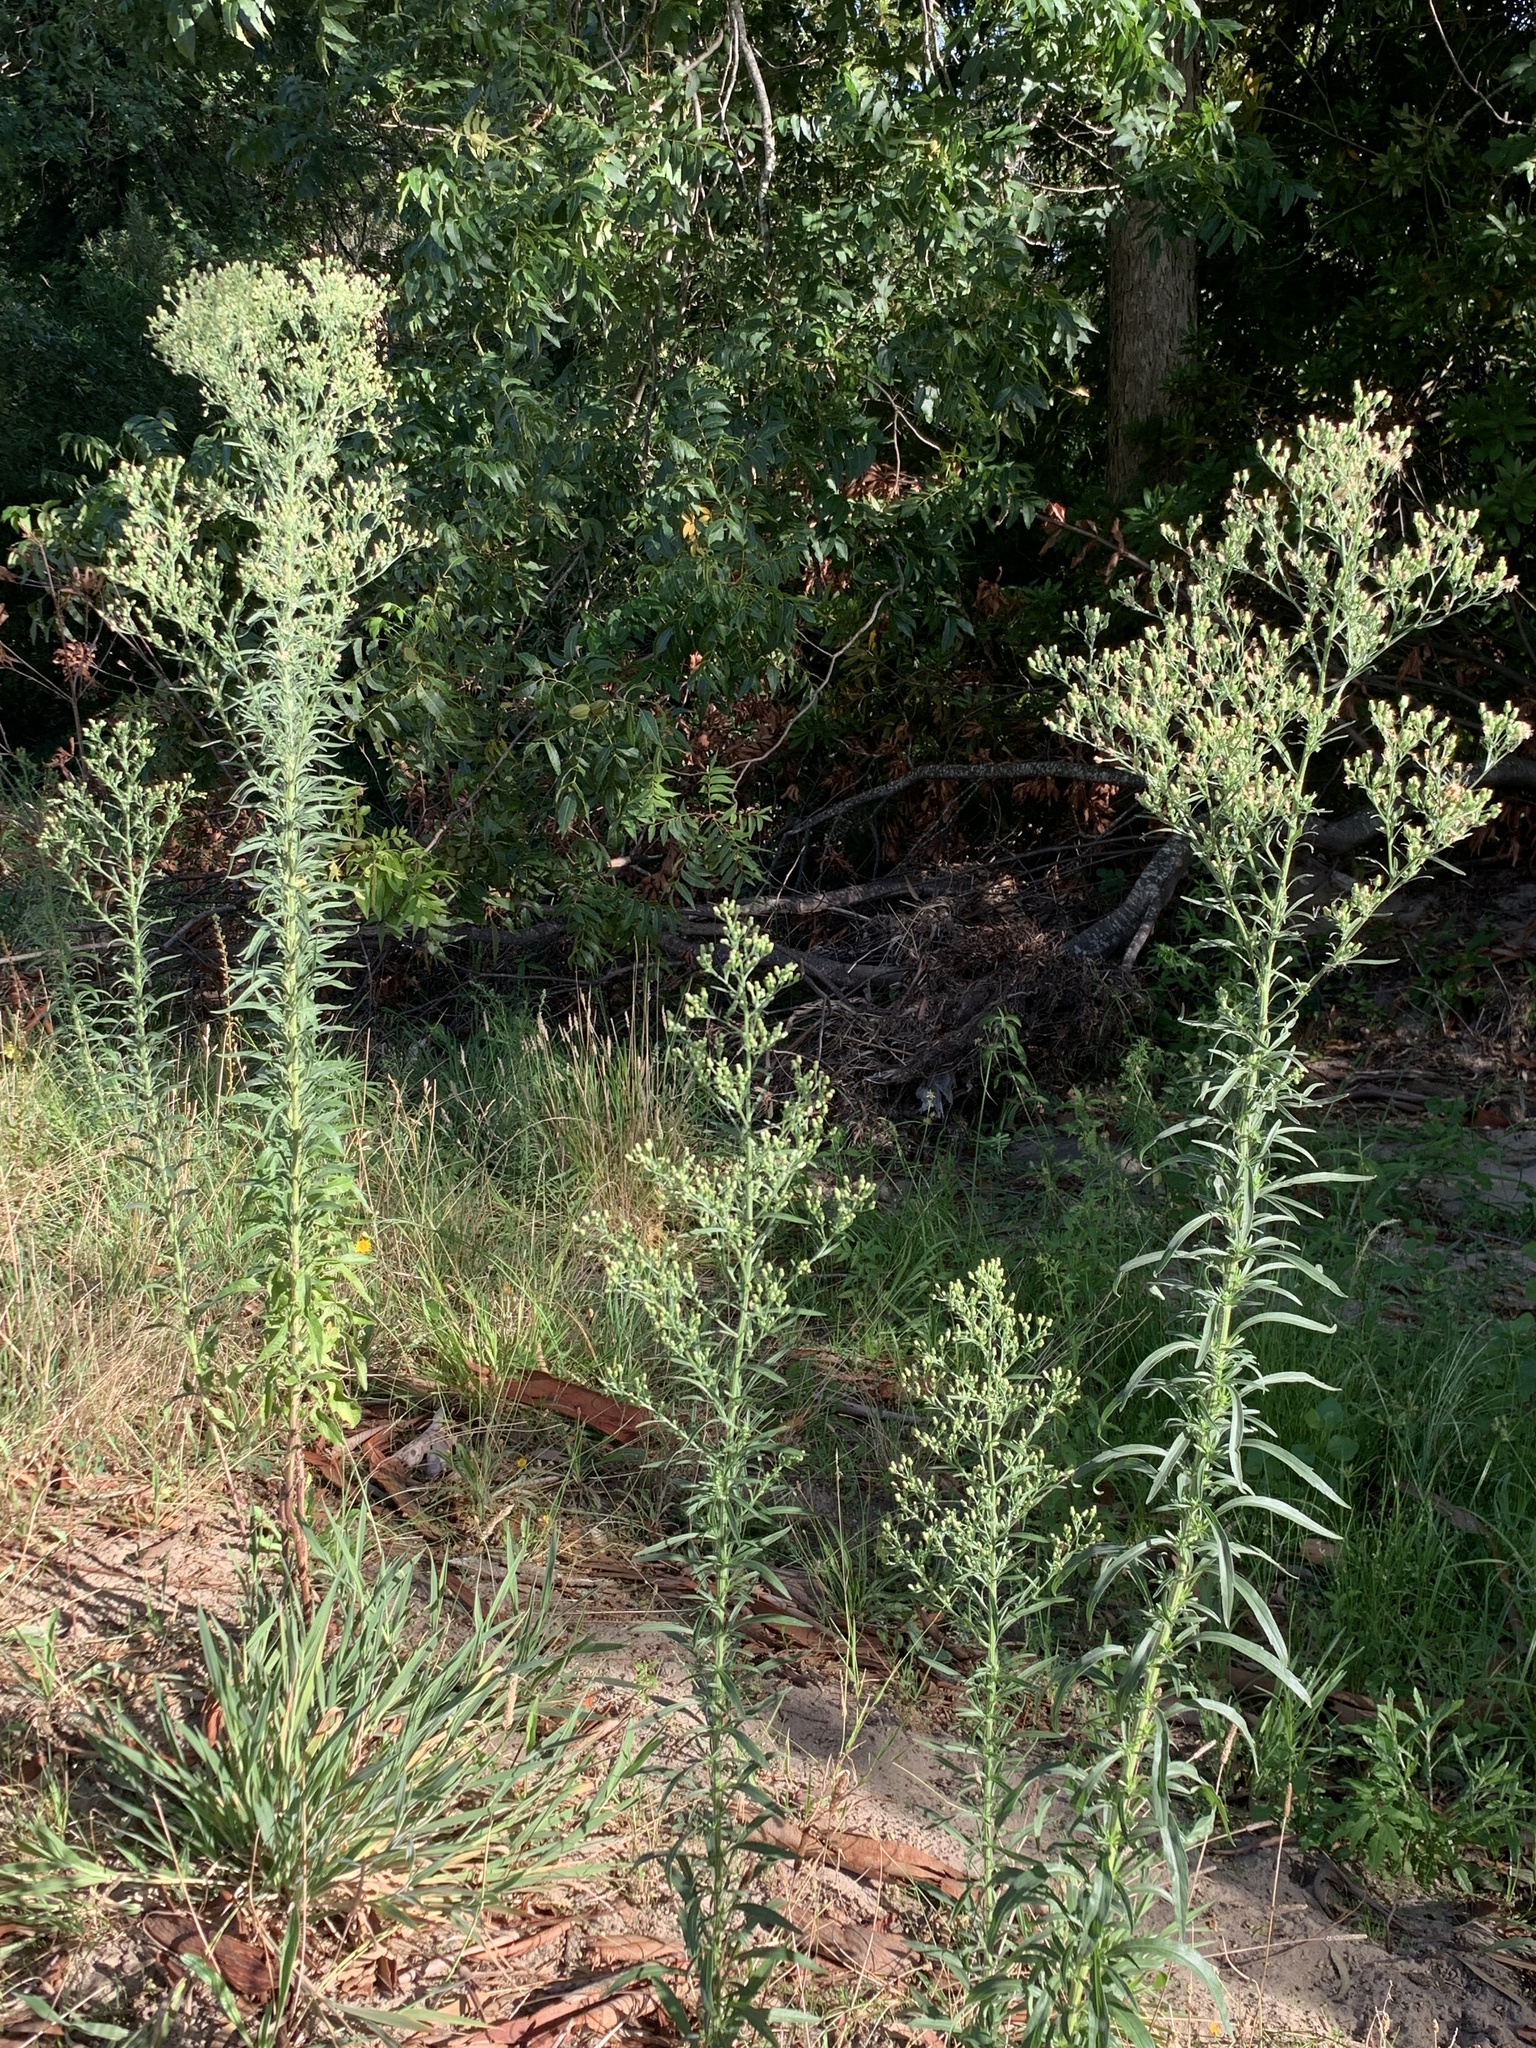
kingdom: Plantae
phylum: Tracheophyta
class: Magnoliopsida
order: Asterales
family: Asteraceae
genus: Erigeron
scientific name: Erigeron sumatrensis
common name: Daisy
